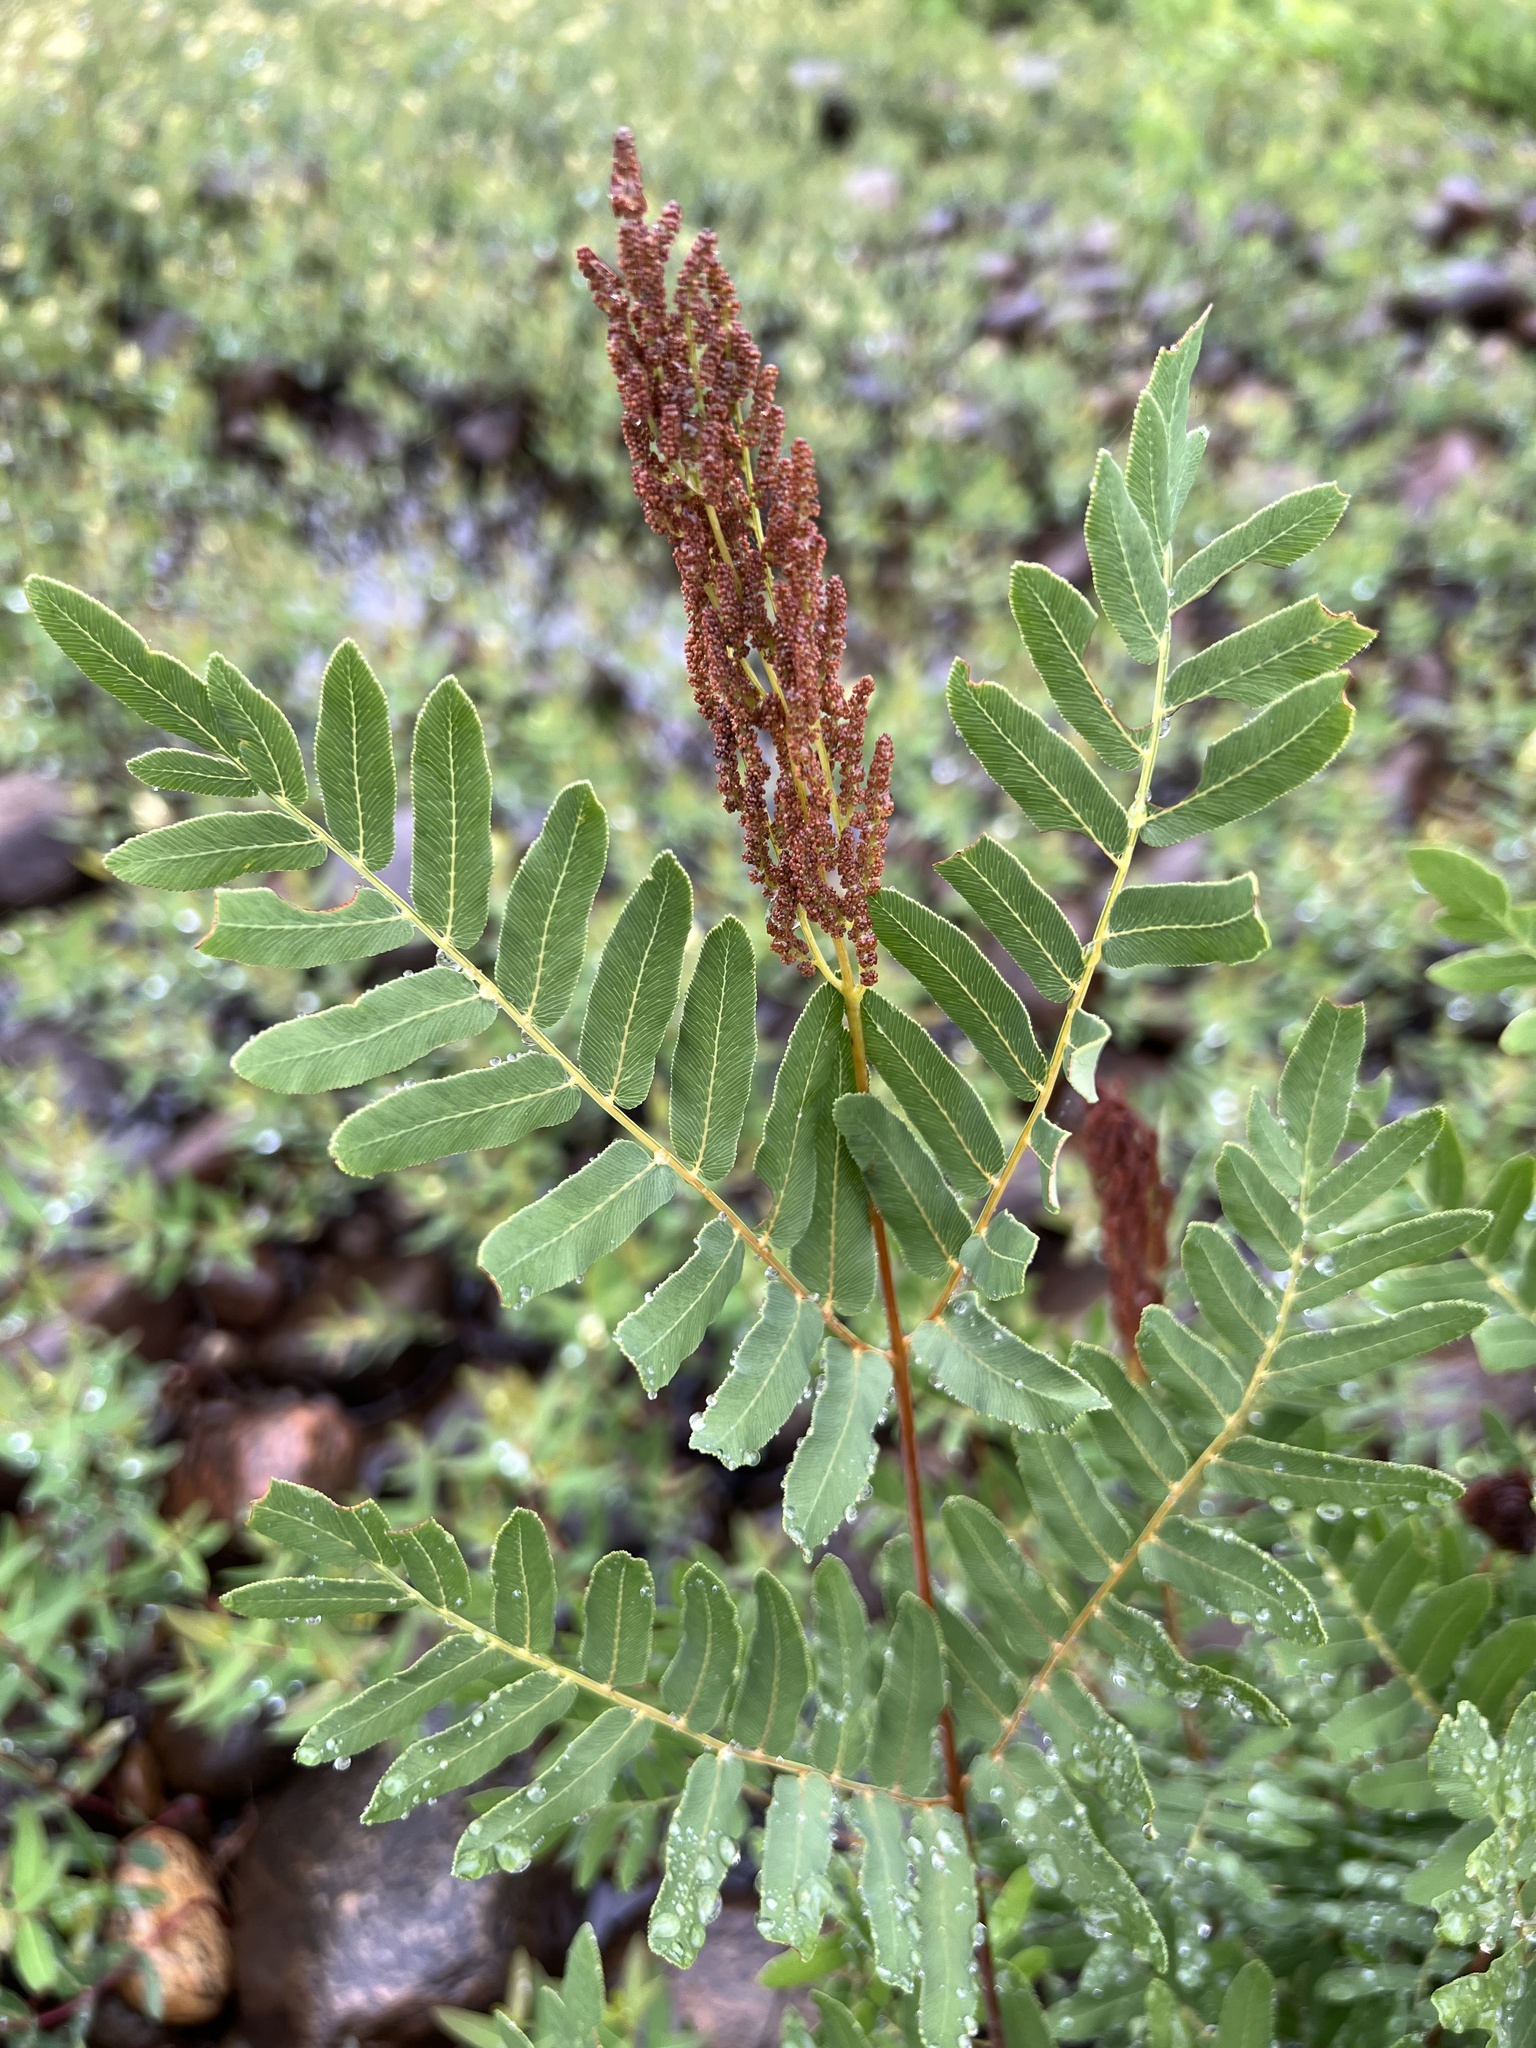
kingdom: Plantae
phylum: Tracheophyta
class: Polypodiopsida
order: Osmundales
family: Osmundaceae
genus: Osmunda
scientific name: Osmunda spectabilis
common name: American royal fern
